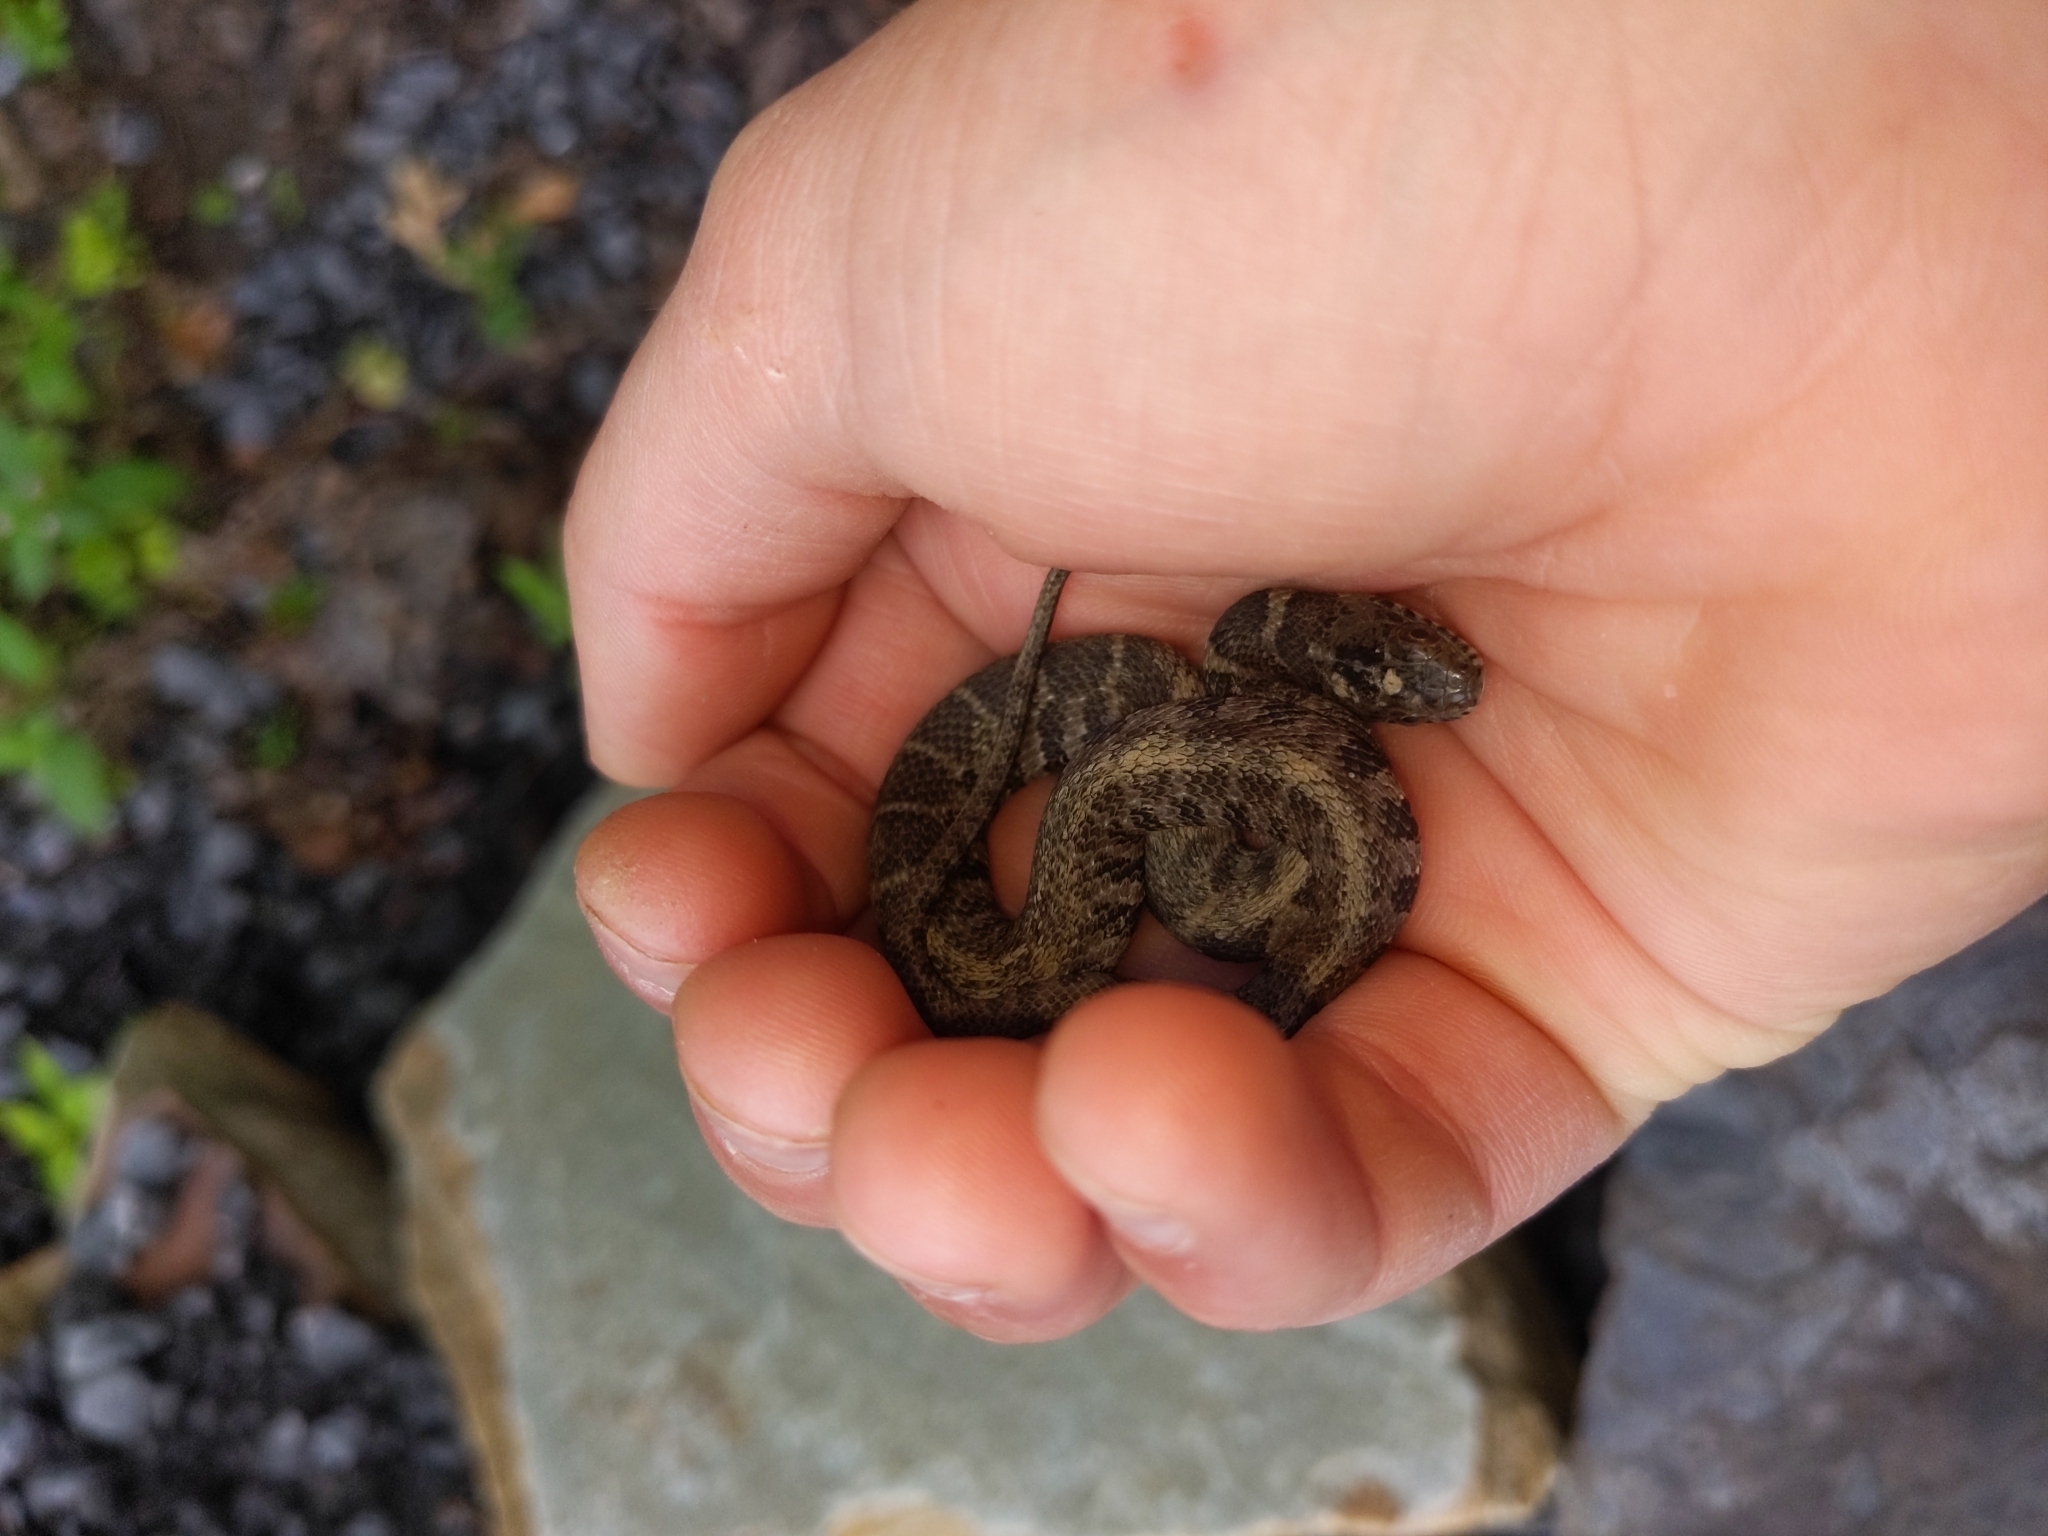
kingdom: Animalia
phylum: Chordata
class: Squamata
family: Colubridae
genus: Nerodia
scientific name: Nerodia sipedon
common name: Northern water snake
